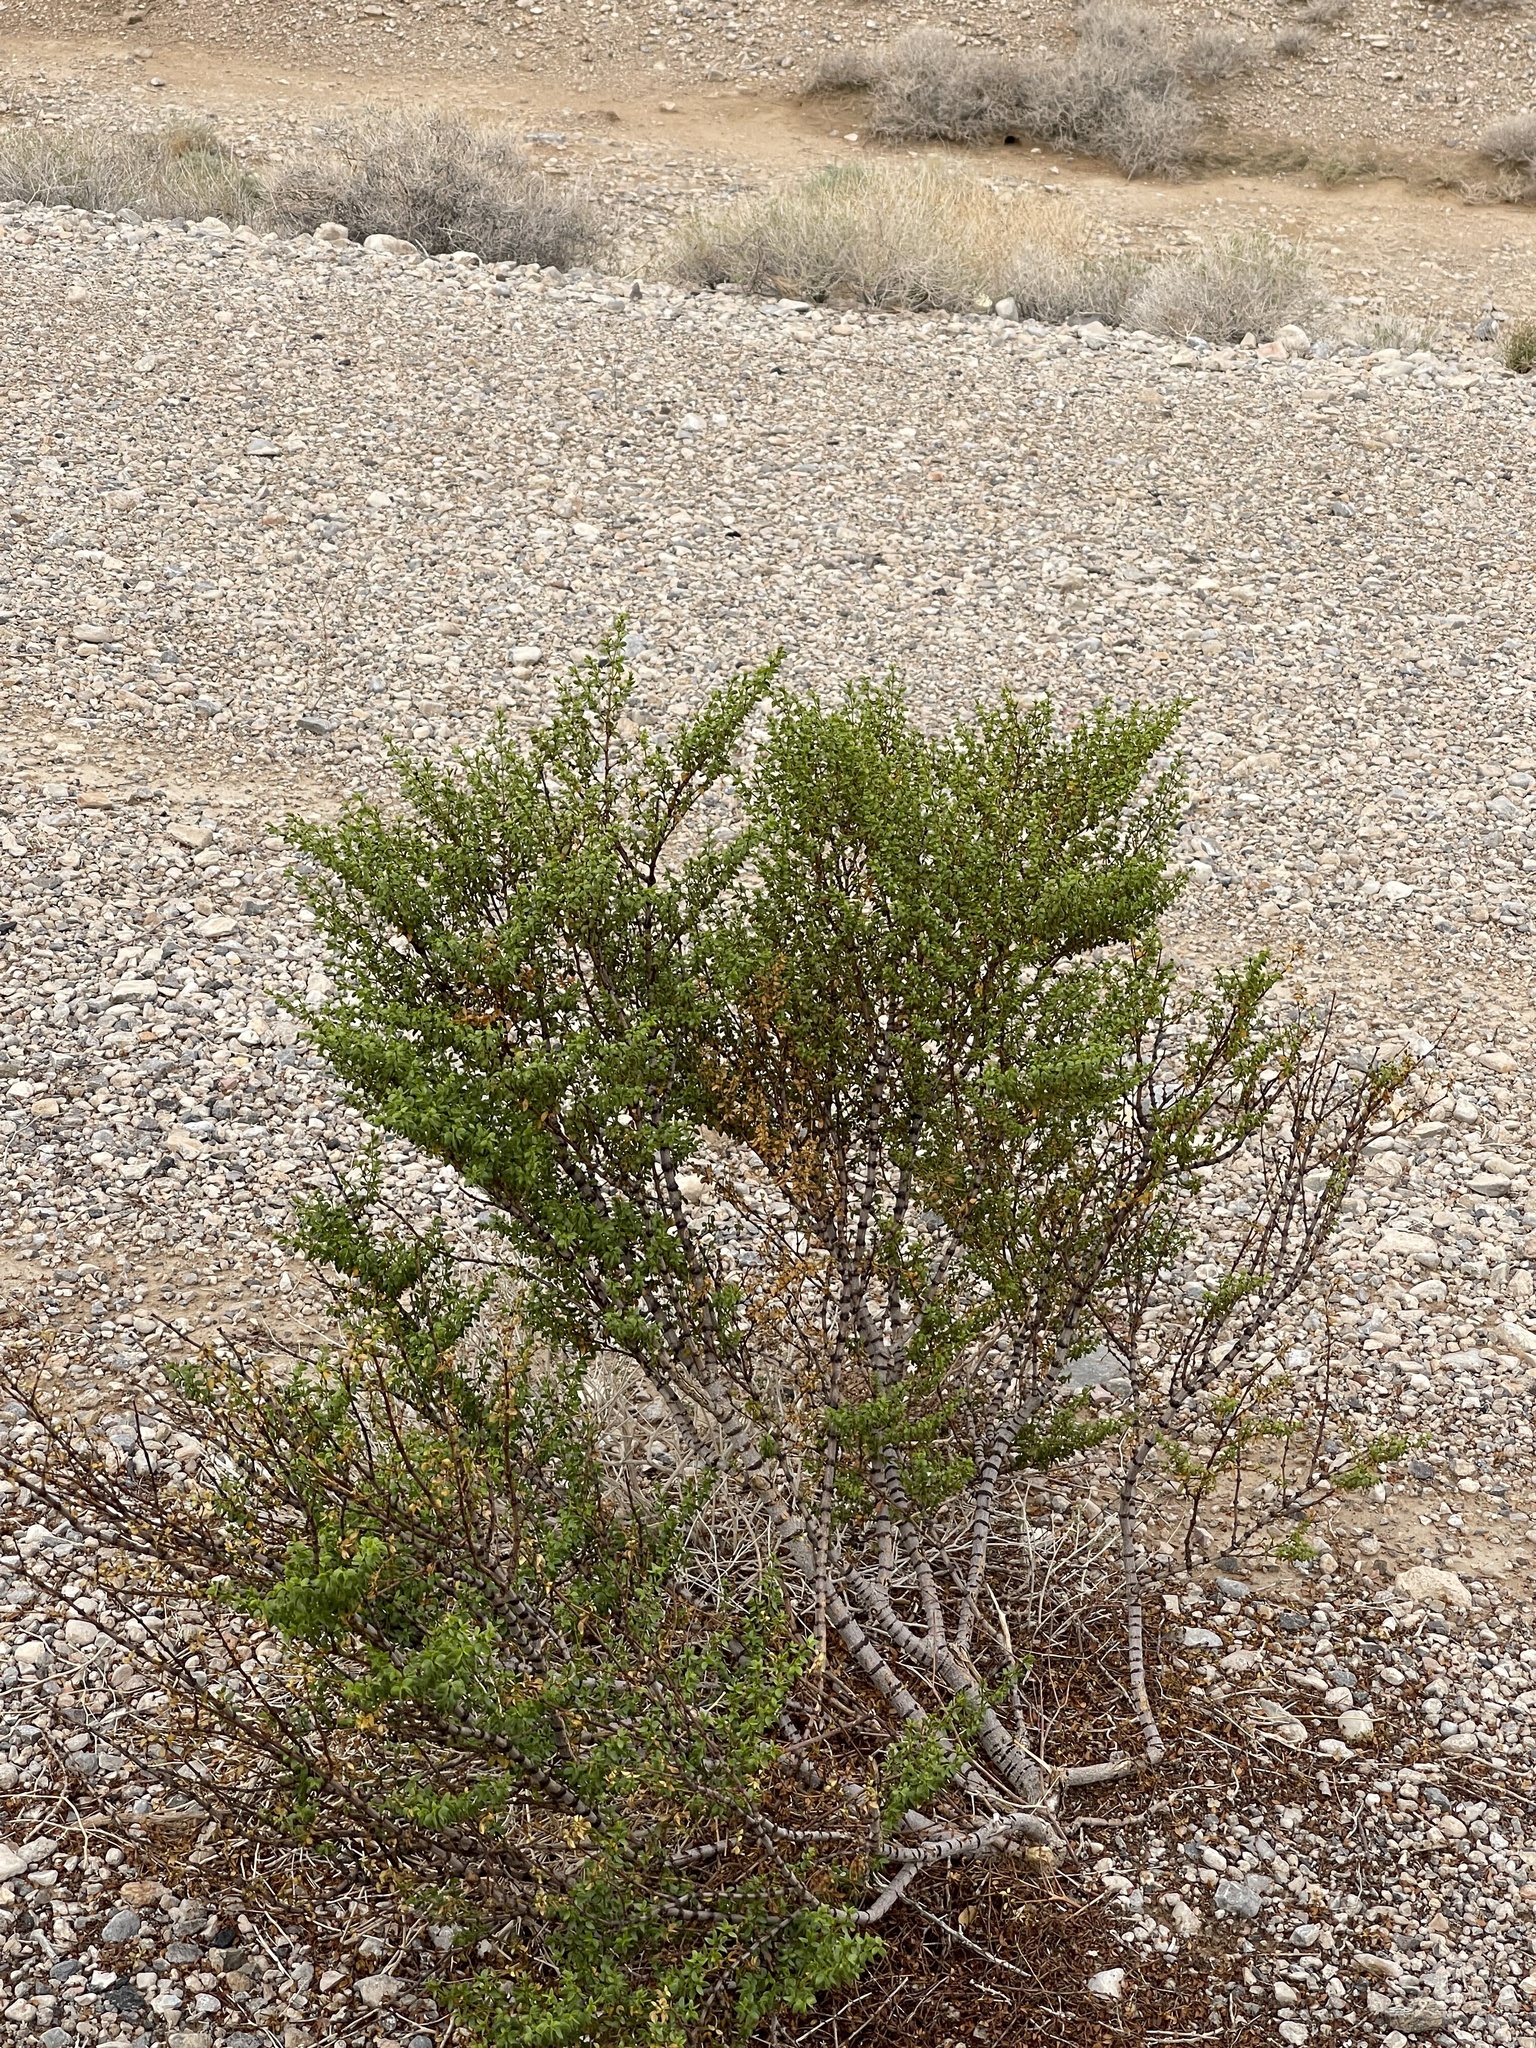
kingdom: Plantae
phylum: Tracheophyta
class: Magnoliopsida
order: Zygophyllales
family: Zygophyllaceae
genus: Larrea
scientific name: Larrea tridentata
